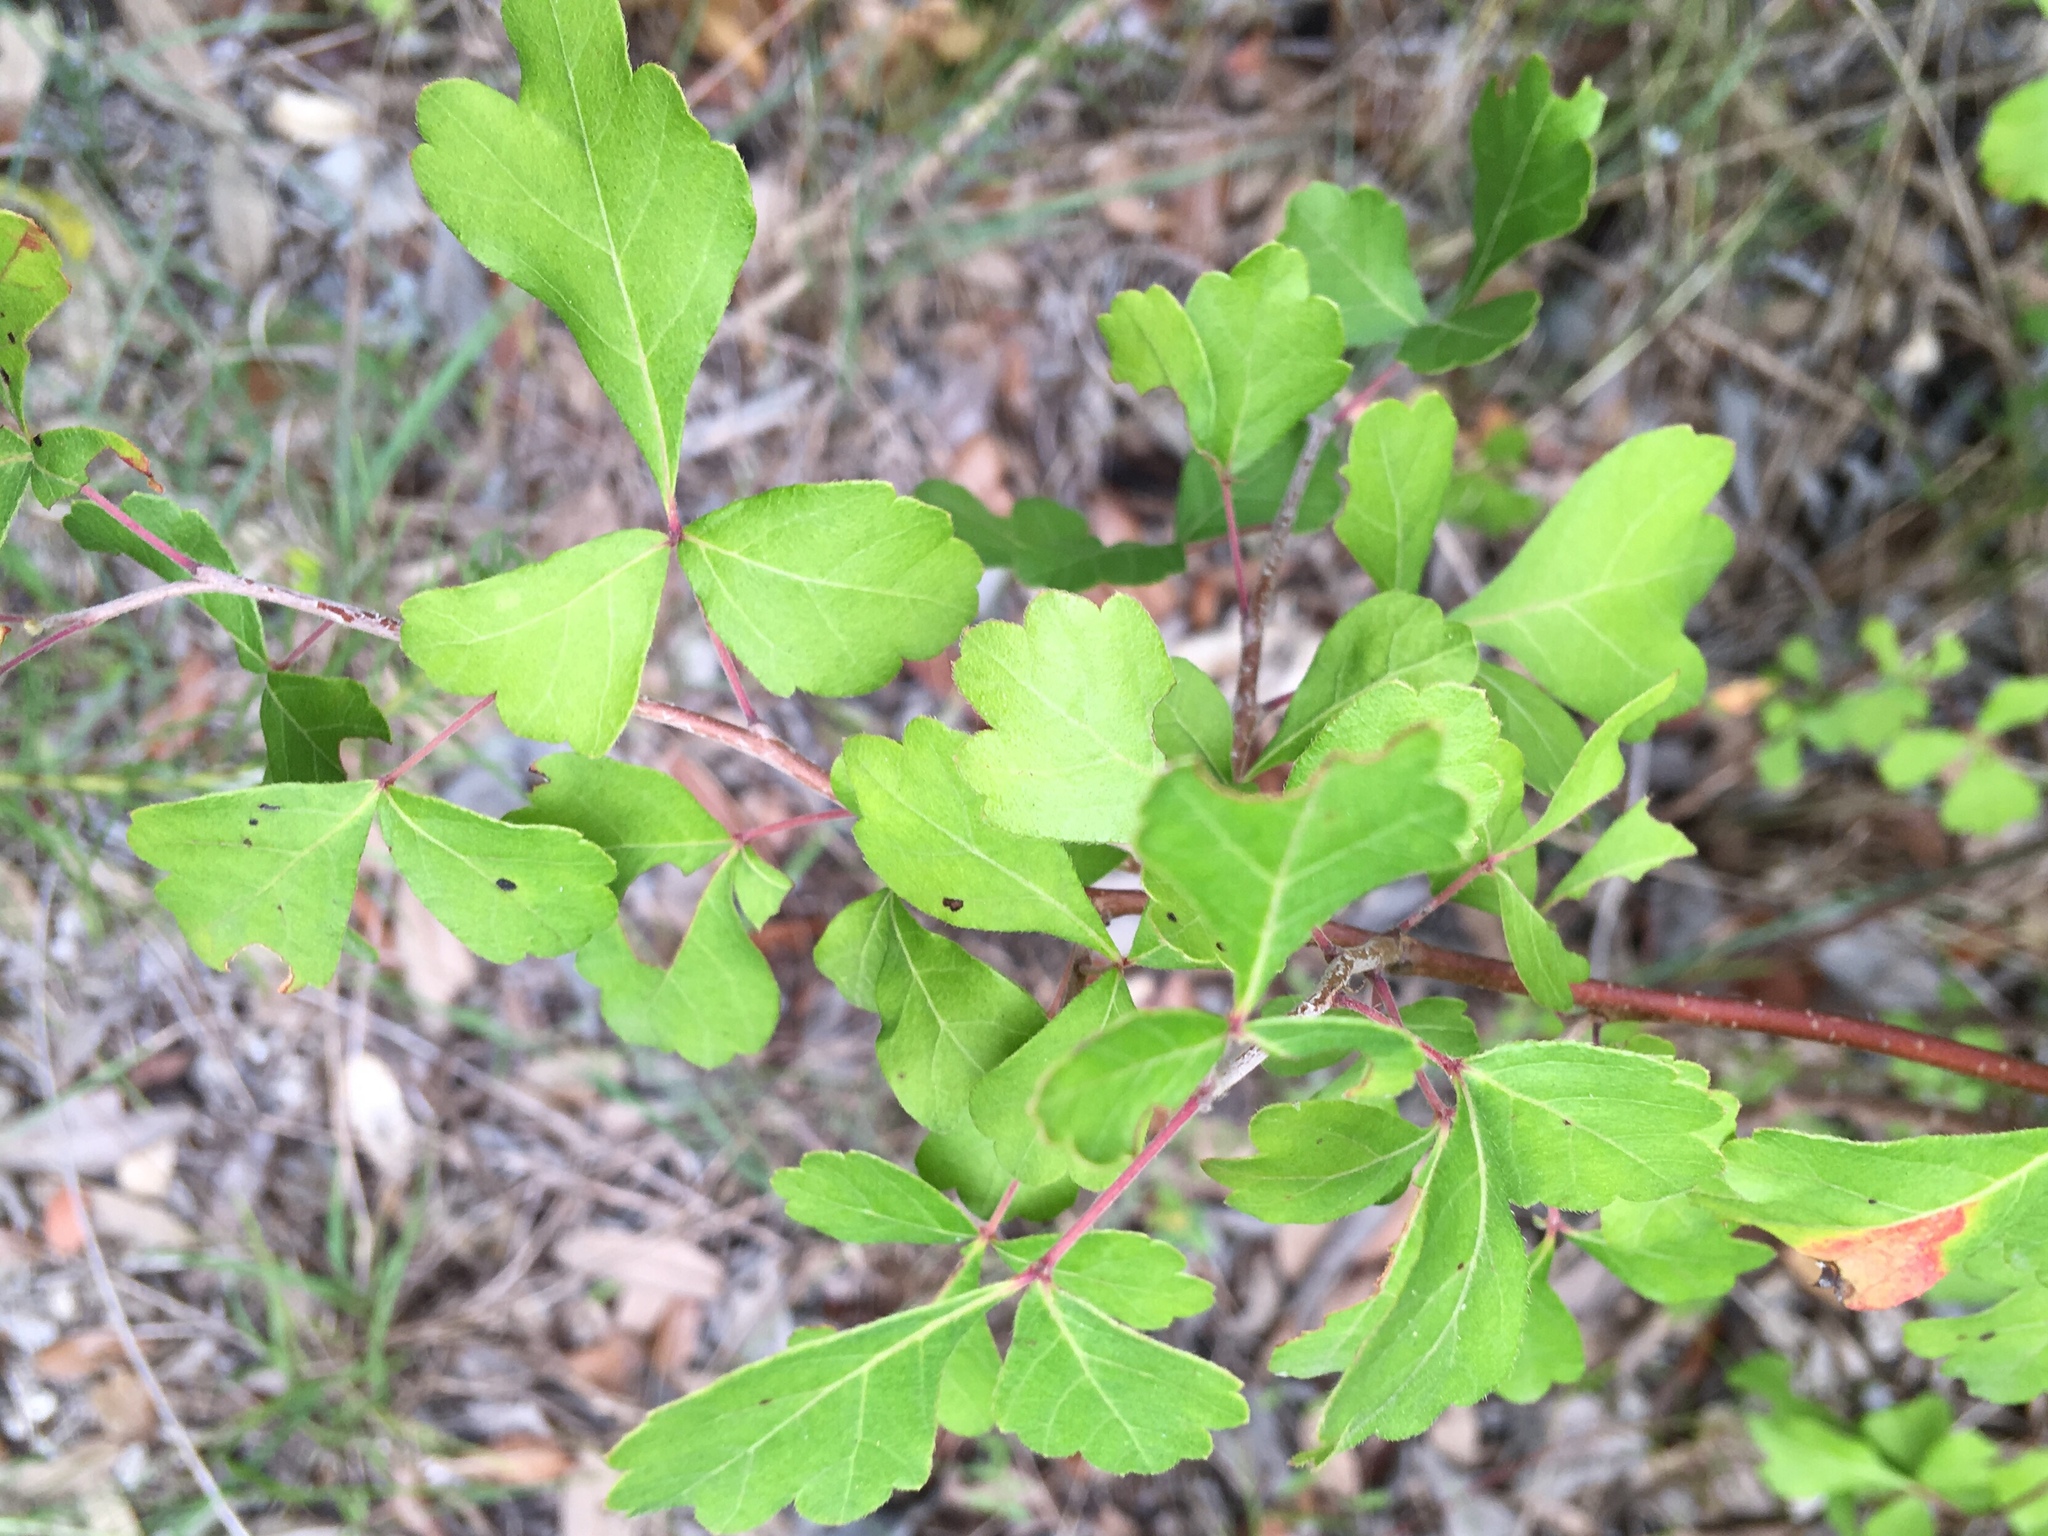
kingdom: Plantae
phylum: Tracheophyta
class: Magnoliopsida
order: Sapindales
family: Anacardiaceae
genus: Rhus
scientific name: Rhus aromatica
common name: Aromatic sumac
